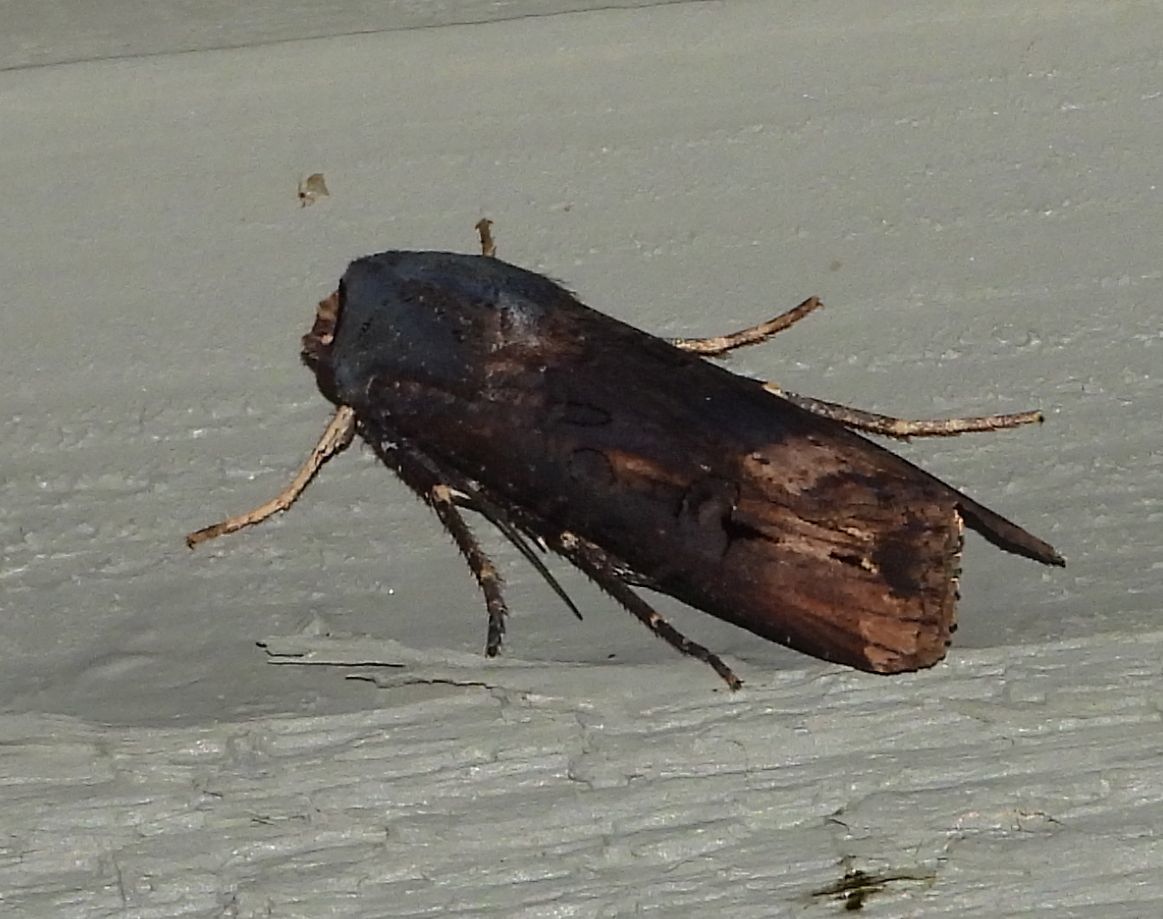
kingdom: Animalia
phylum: Arthropoda
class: Insecta
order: Lepidoptera
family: Noctuidae
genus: Agrotis
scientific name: Agrotis ipsilon
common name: Dark sword-grass
